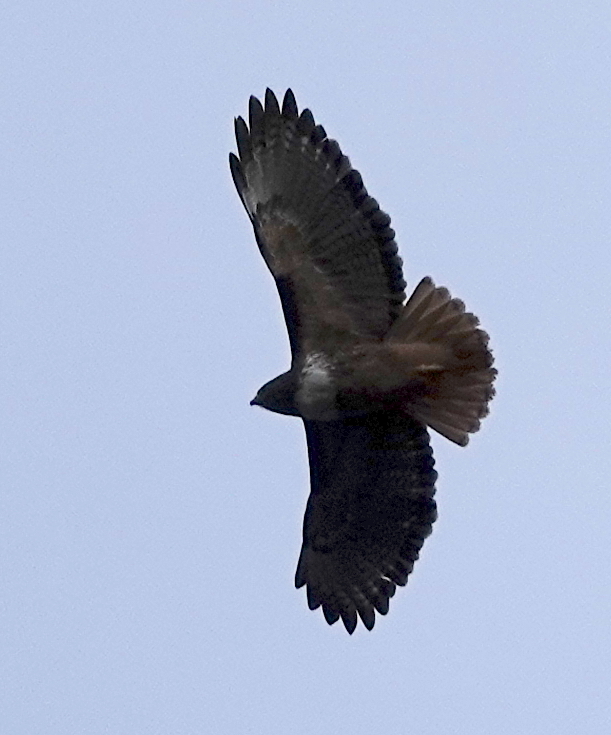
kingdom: Animalia
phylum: Chordata
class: Aves
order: Accipitriformes
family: Accipitridae
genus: Buteo
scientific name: Buteo jamaicensis
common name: Red-tailed hawk
